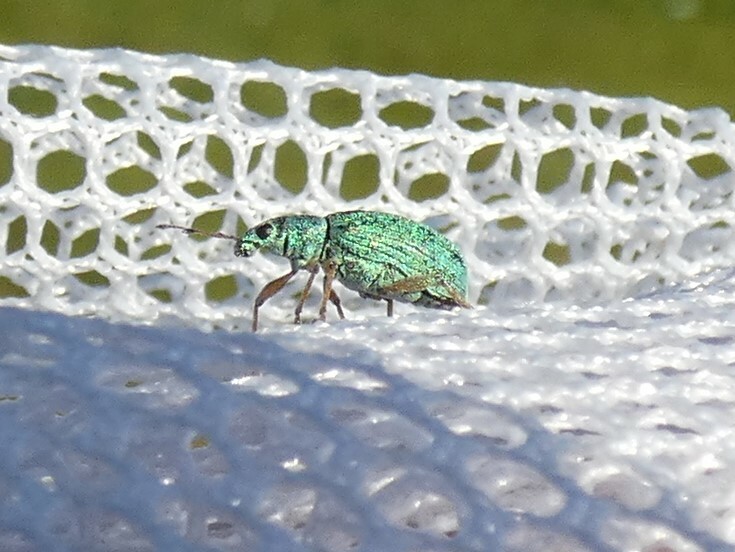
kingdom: Animalia
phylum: Arthropoda
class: Insecta
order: Coleoptera
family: Curculionidae
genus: Polydrusus
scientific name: Polydrusus formosus
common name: Weevil
